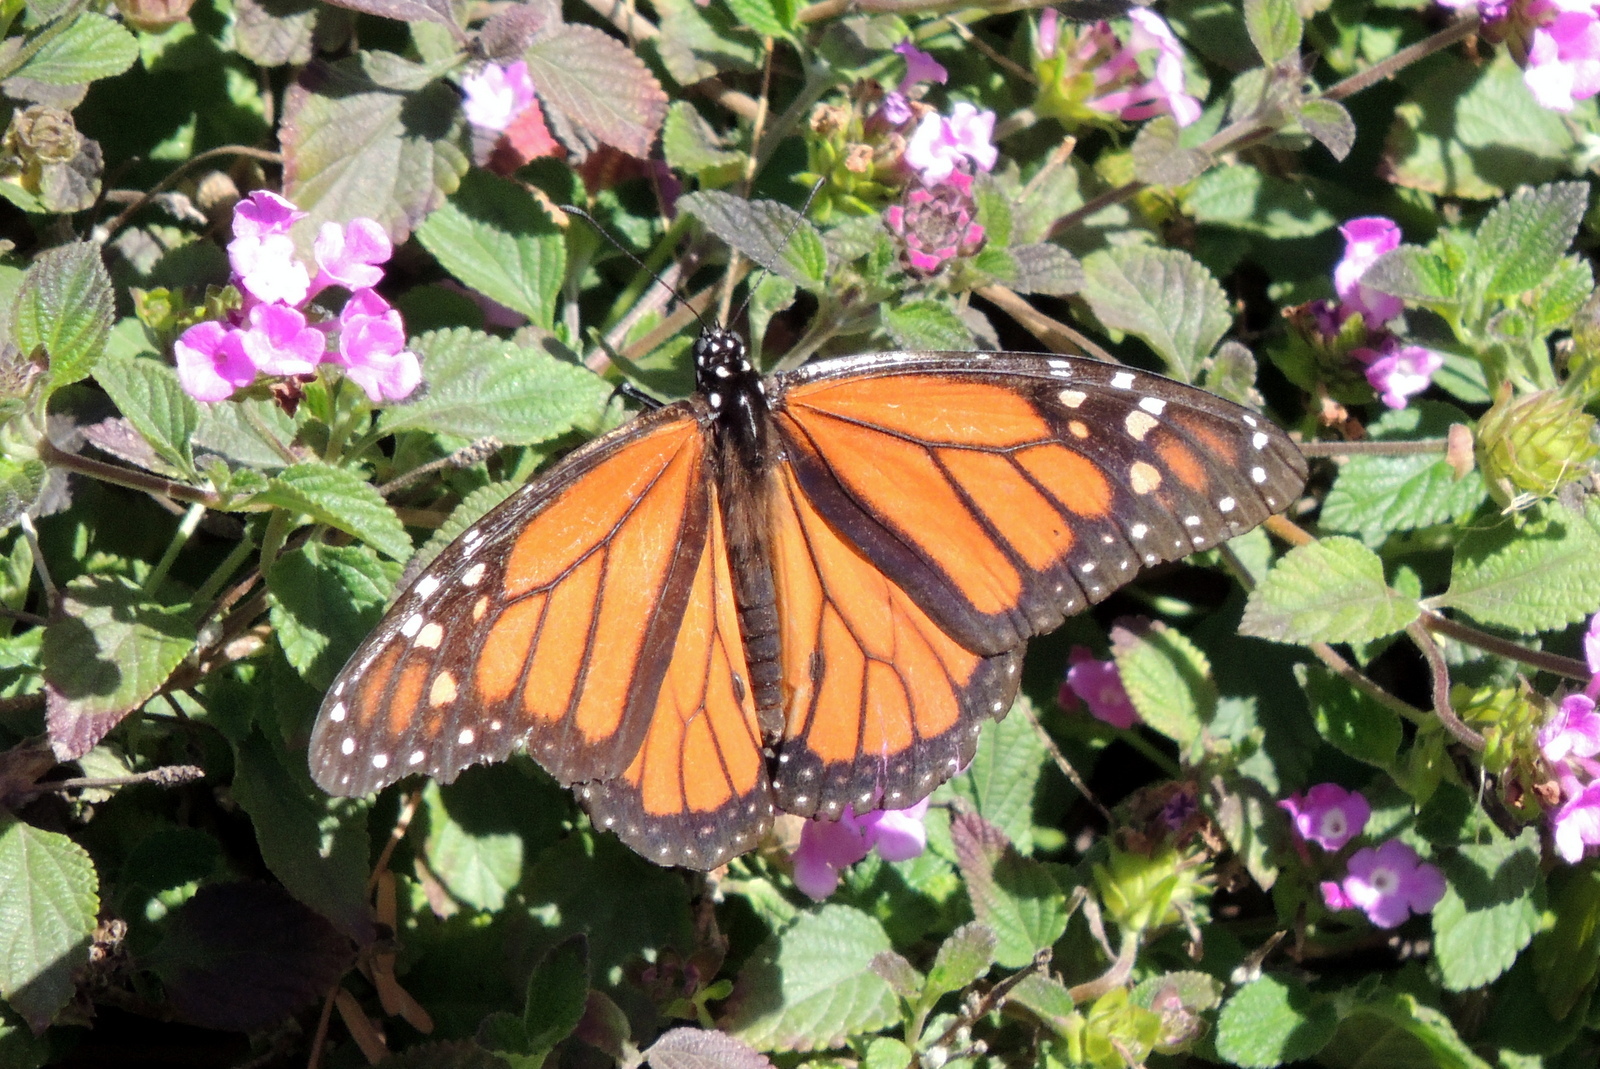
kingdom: Animalia
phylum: Arthropoda
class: Insecta
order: Lepidoptera
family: Nymphalidae
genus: Danaus
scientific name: Danaus plexippus
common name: Monarch
